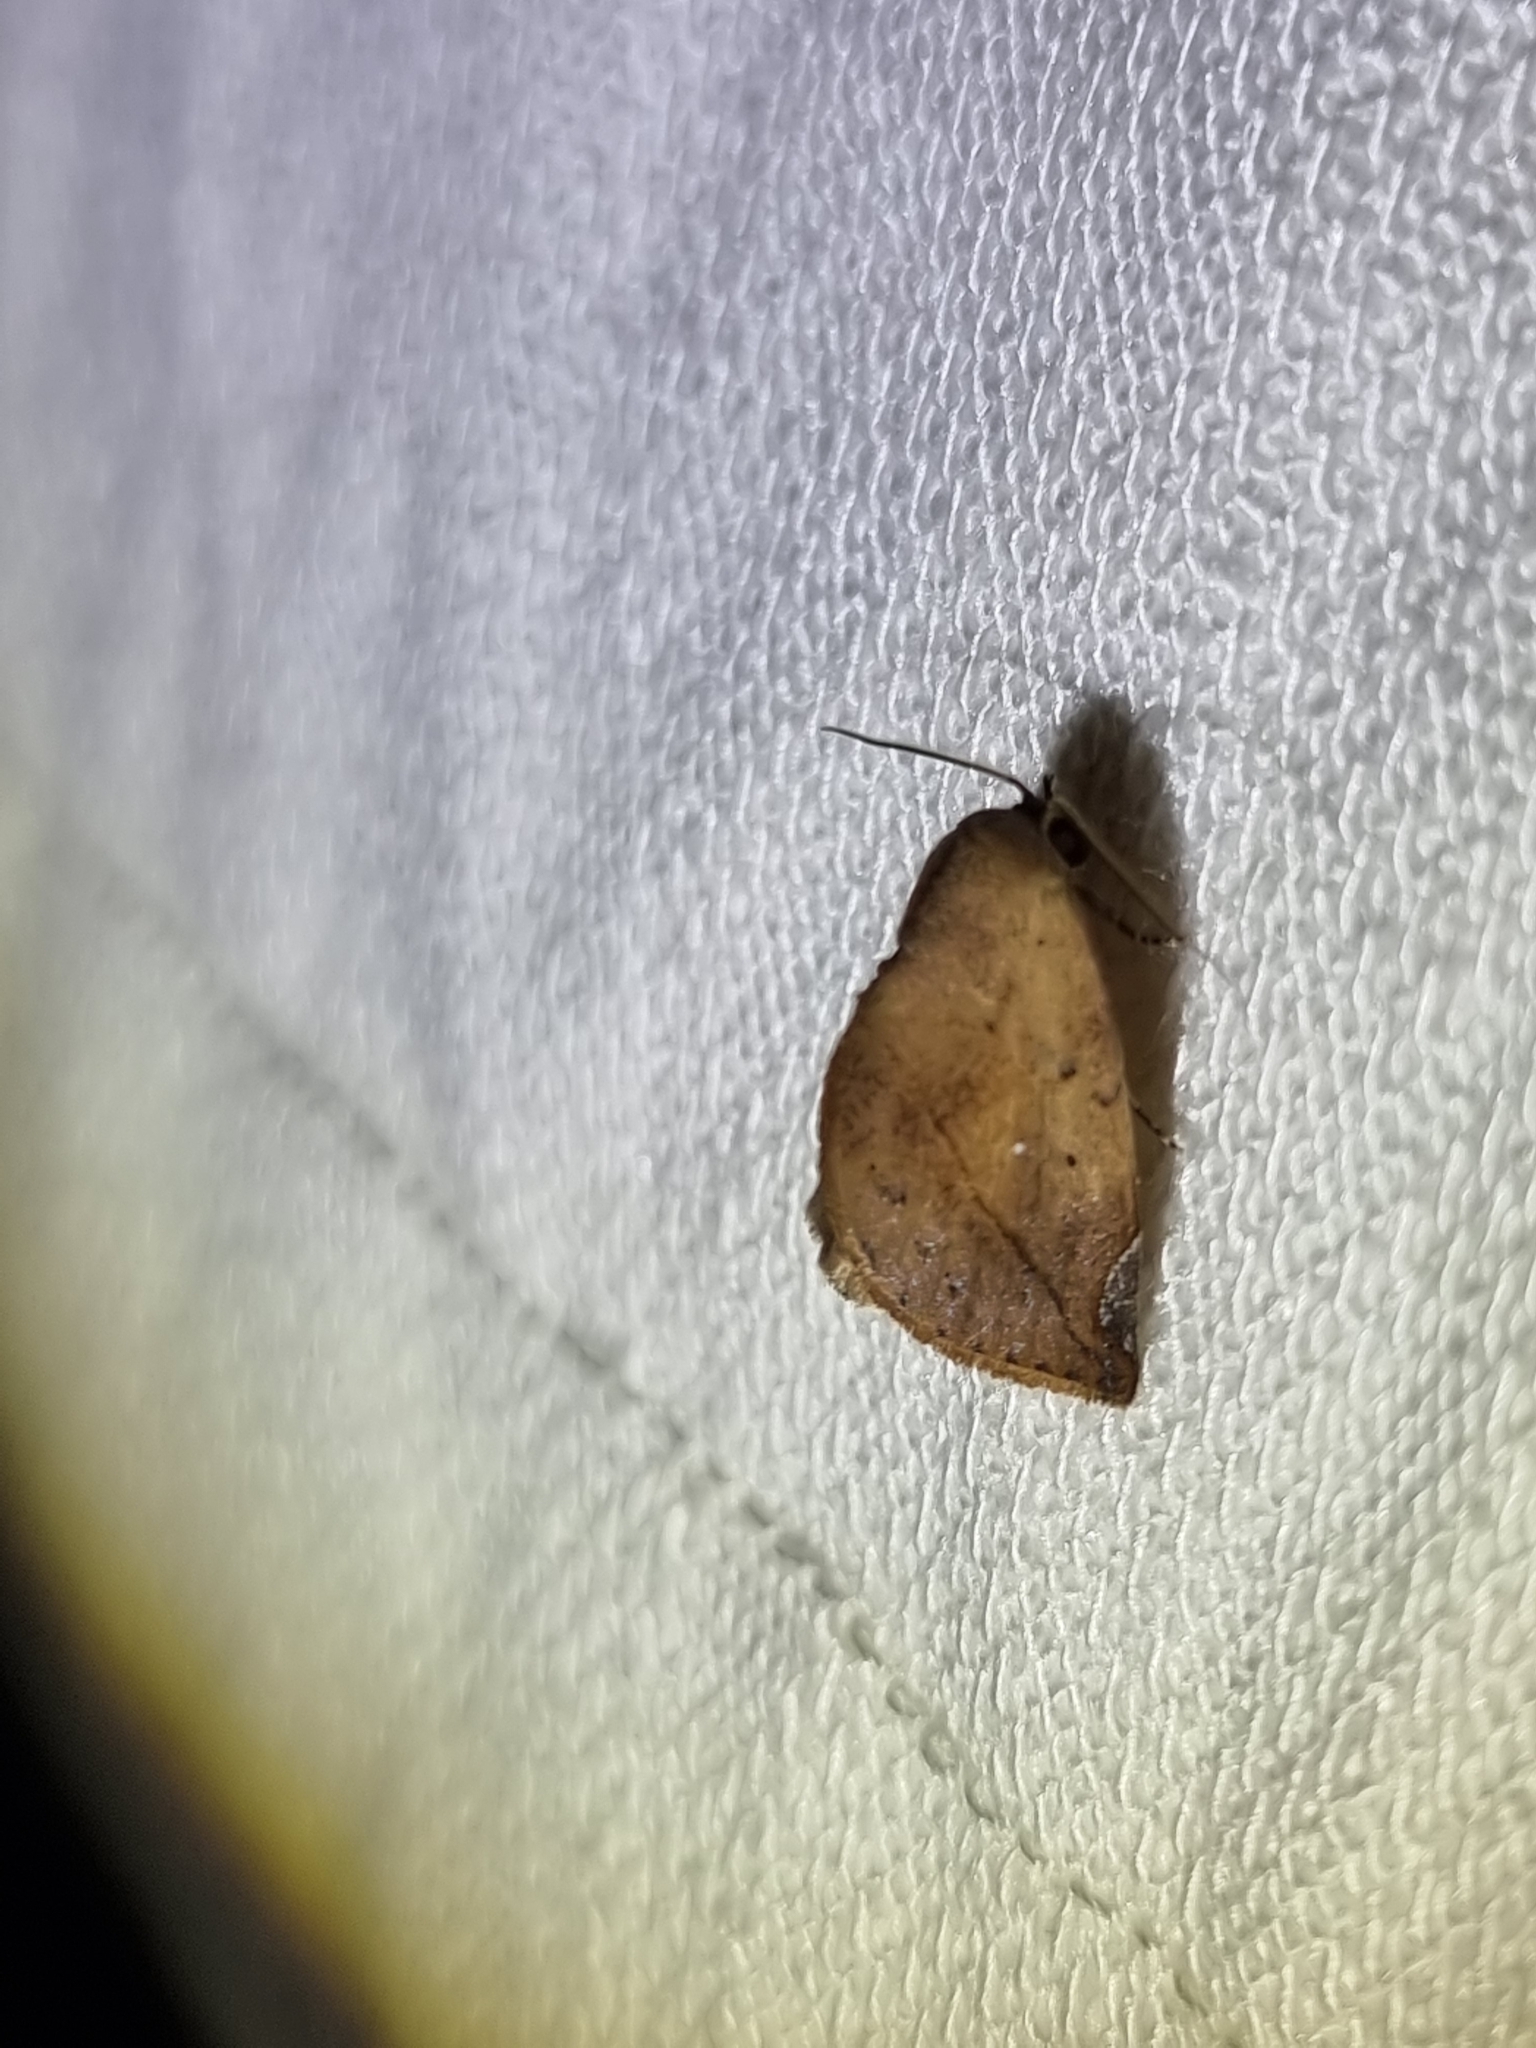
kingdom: Animalia
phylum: Arthropoda
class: Insecta
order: Lepidoptera
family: Nolidae
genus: Negeta
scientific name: Negeta contrariata
